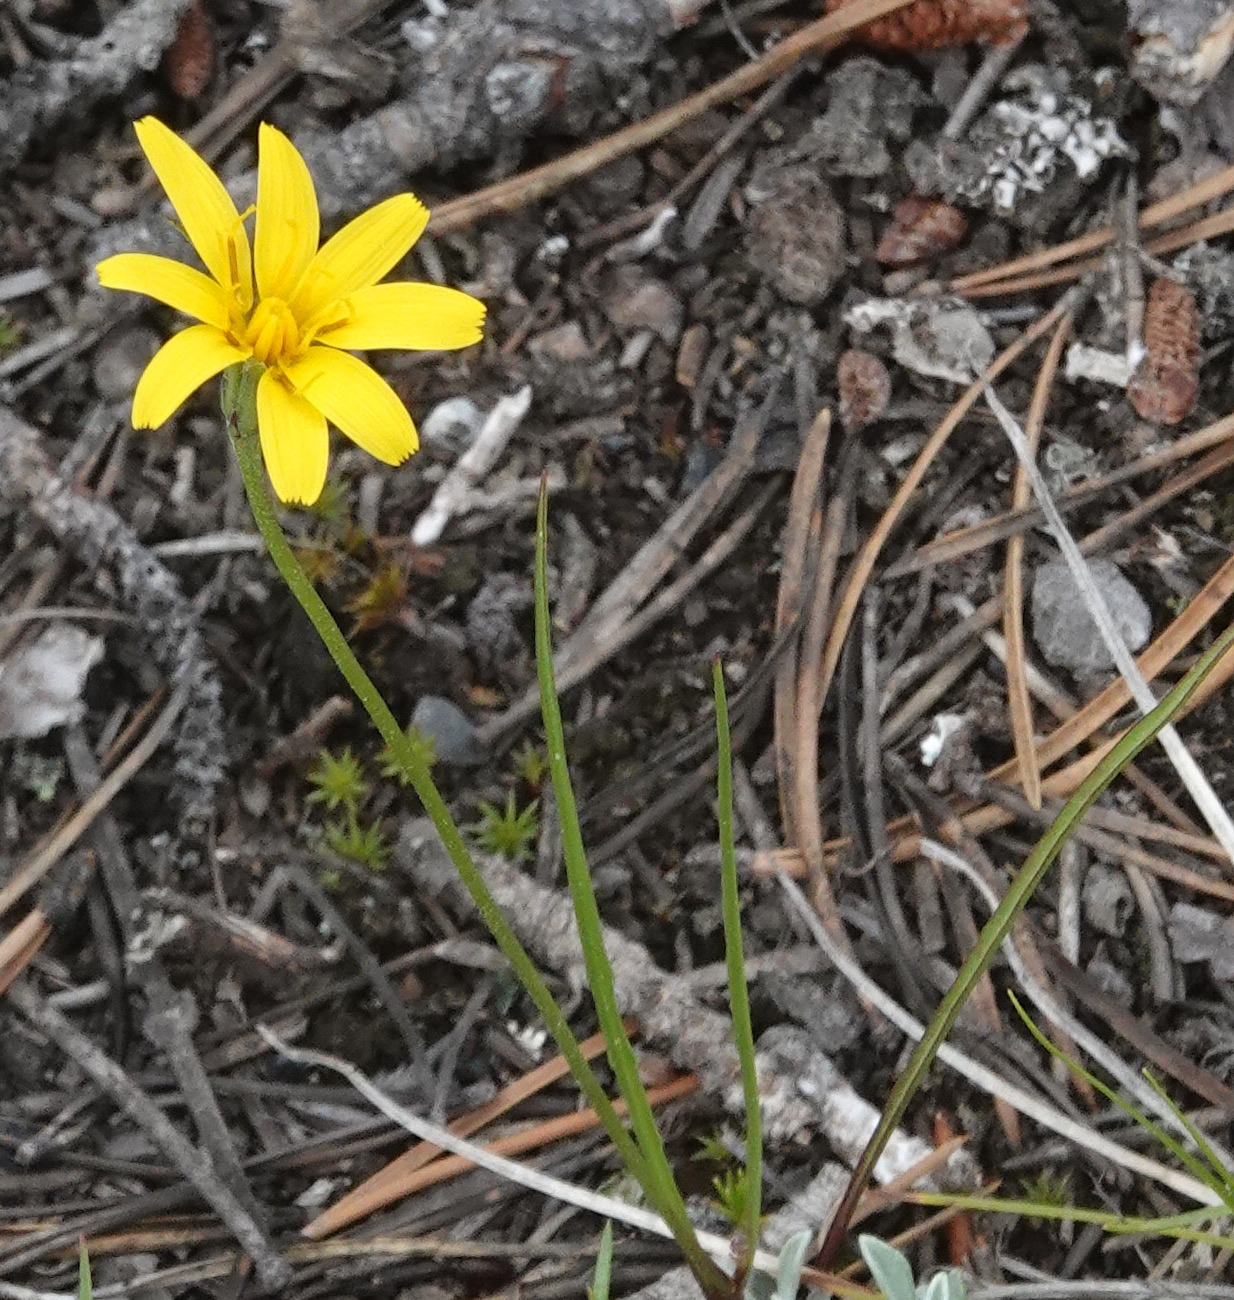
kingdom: Plantae
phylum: Tracheophyta
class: Magnoliopsida
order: Asterales
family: Asteraceae
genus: Microseris
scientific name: Microseris nutans
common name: Nodding microseris
